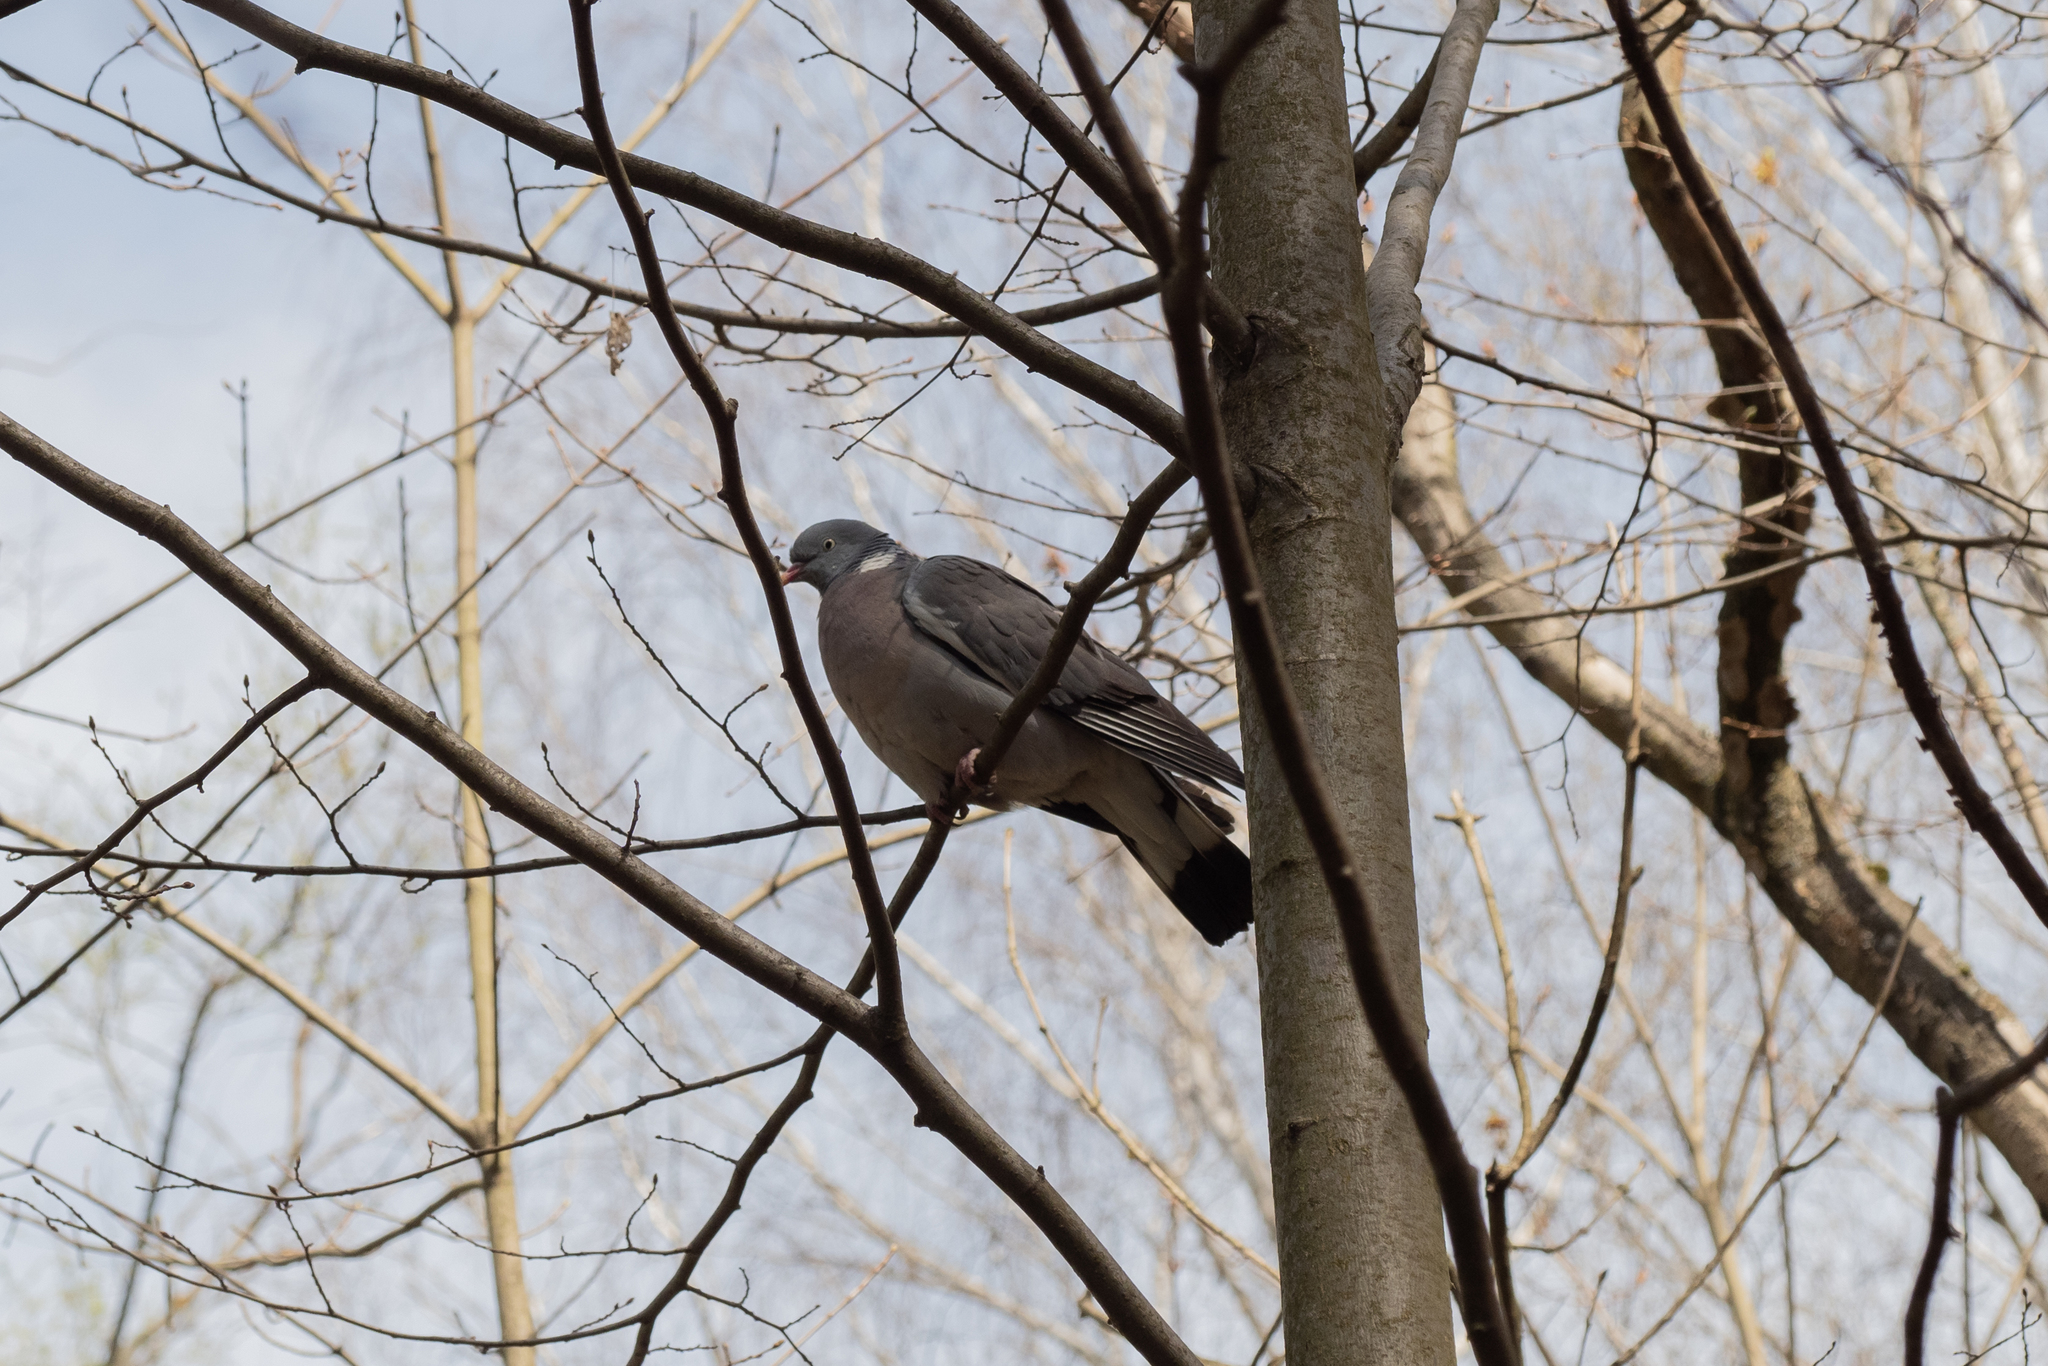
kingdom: Animalia
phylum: Chordata
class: Aves
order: Columbiformes
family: Columbidae
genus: Columba
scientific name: Columba palumbus
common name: Common wood pigeon
